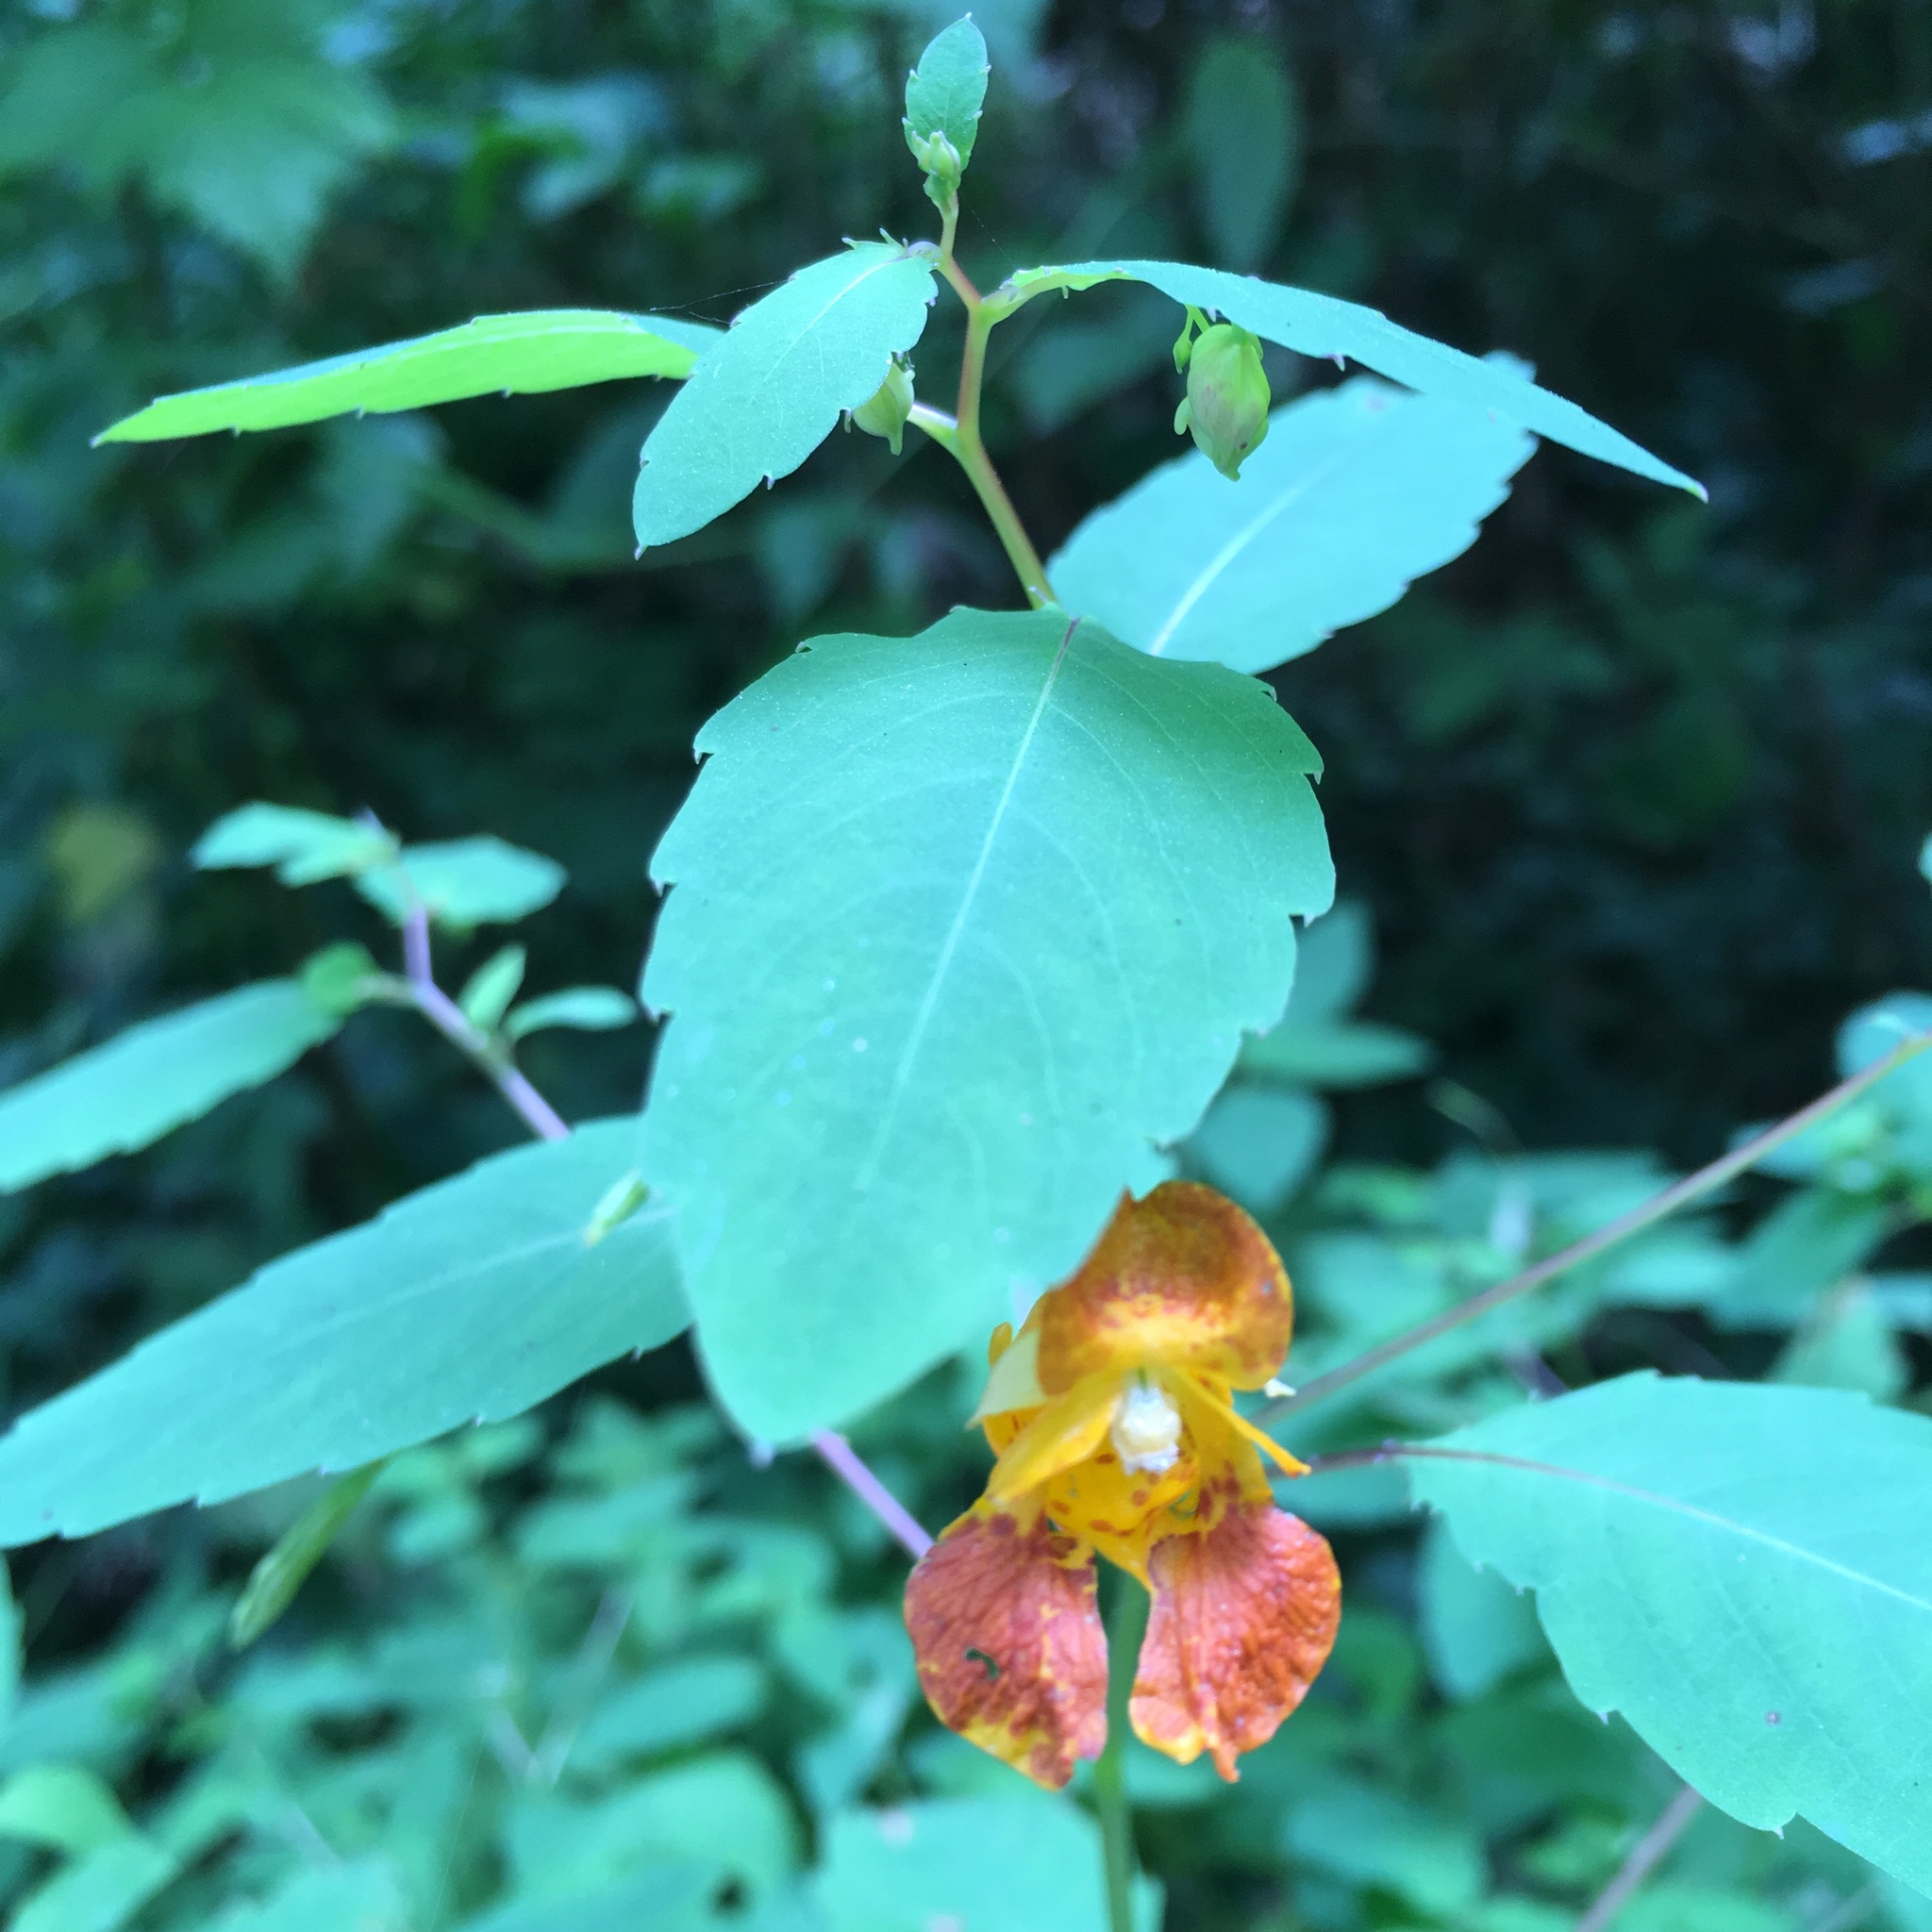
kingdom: Plantae
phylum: Tracheophyta
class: Magnoliopsida
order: Ericales
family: Balsaminaceae
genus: Impatiens
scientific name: Impatiens capensis
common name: Orange balsam
